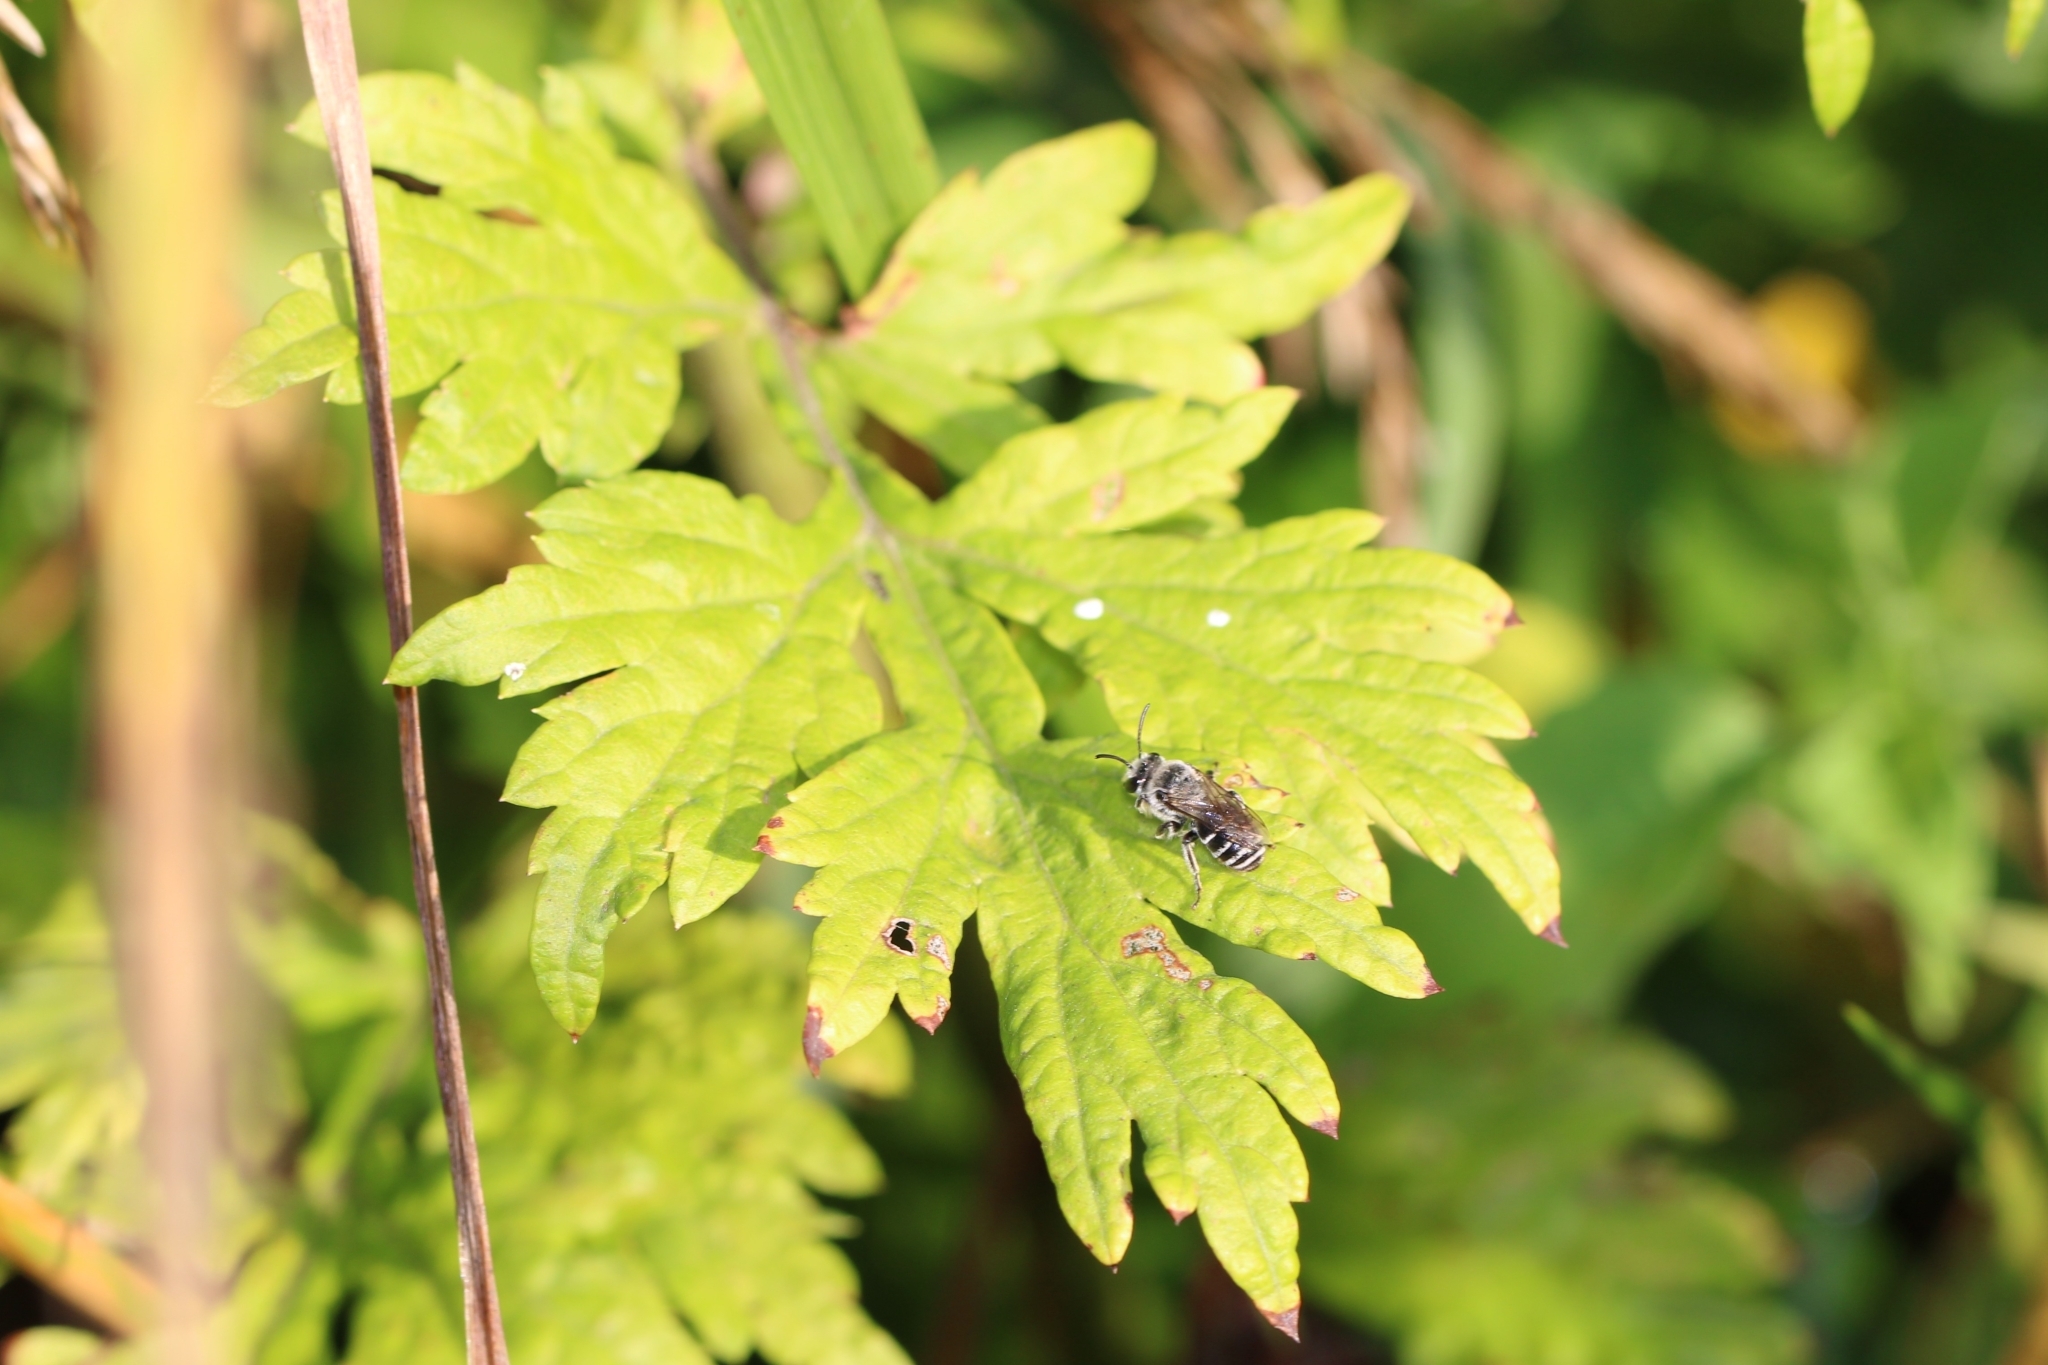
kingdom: Animalia
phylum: Arthropoda
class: Insecta
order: Hymenoptera
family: Colletidae
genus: Colletes
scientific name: Colletes latitarsis
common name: Broad-footed cellophane bee
